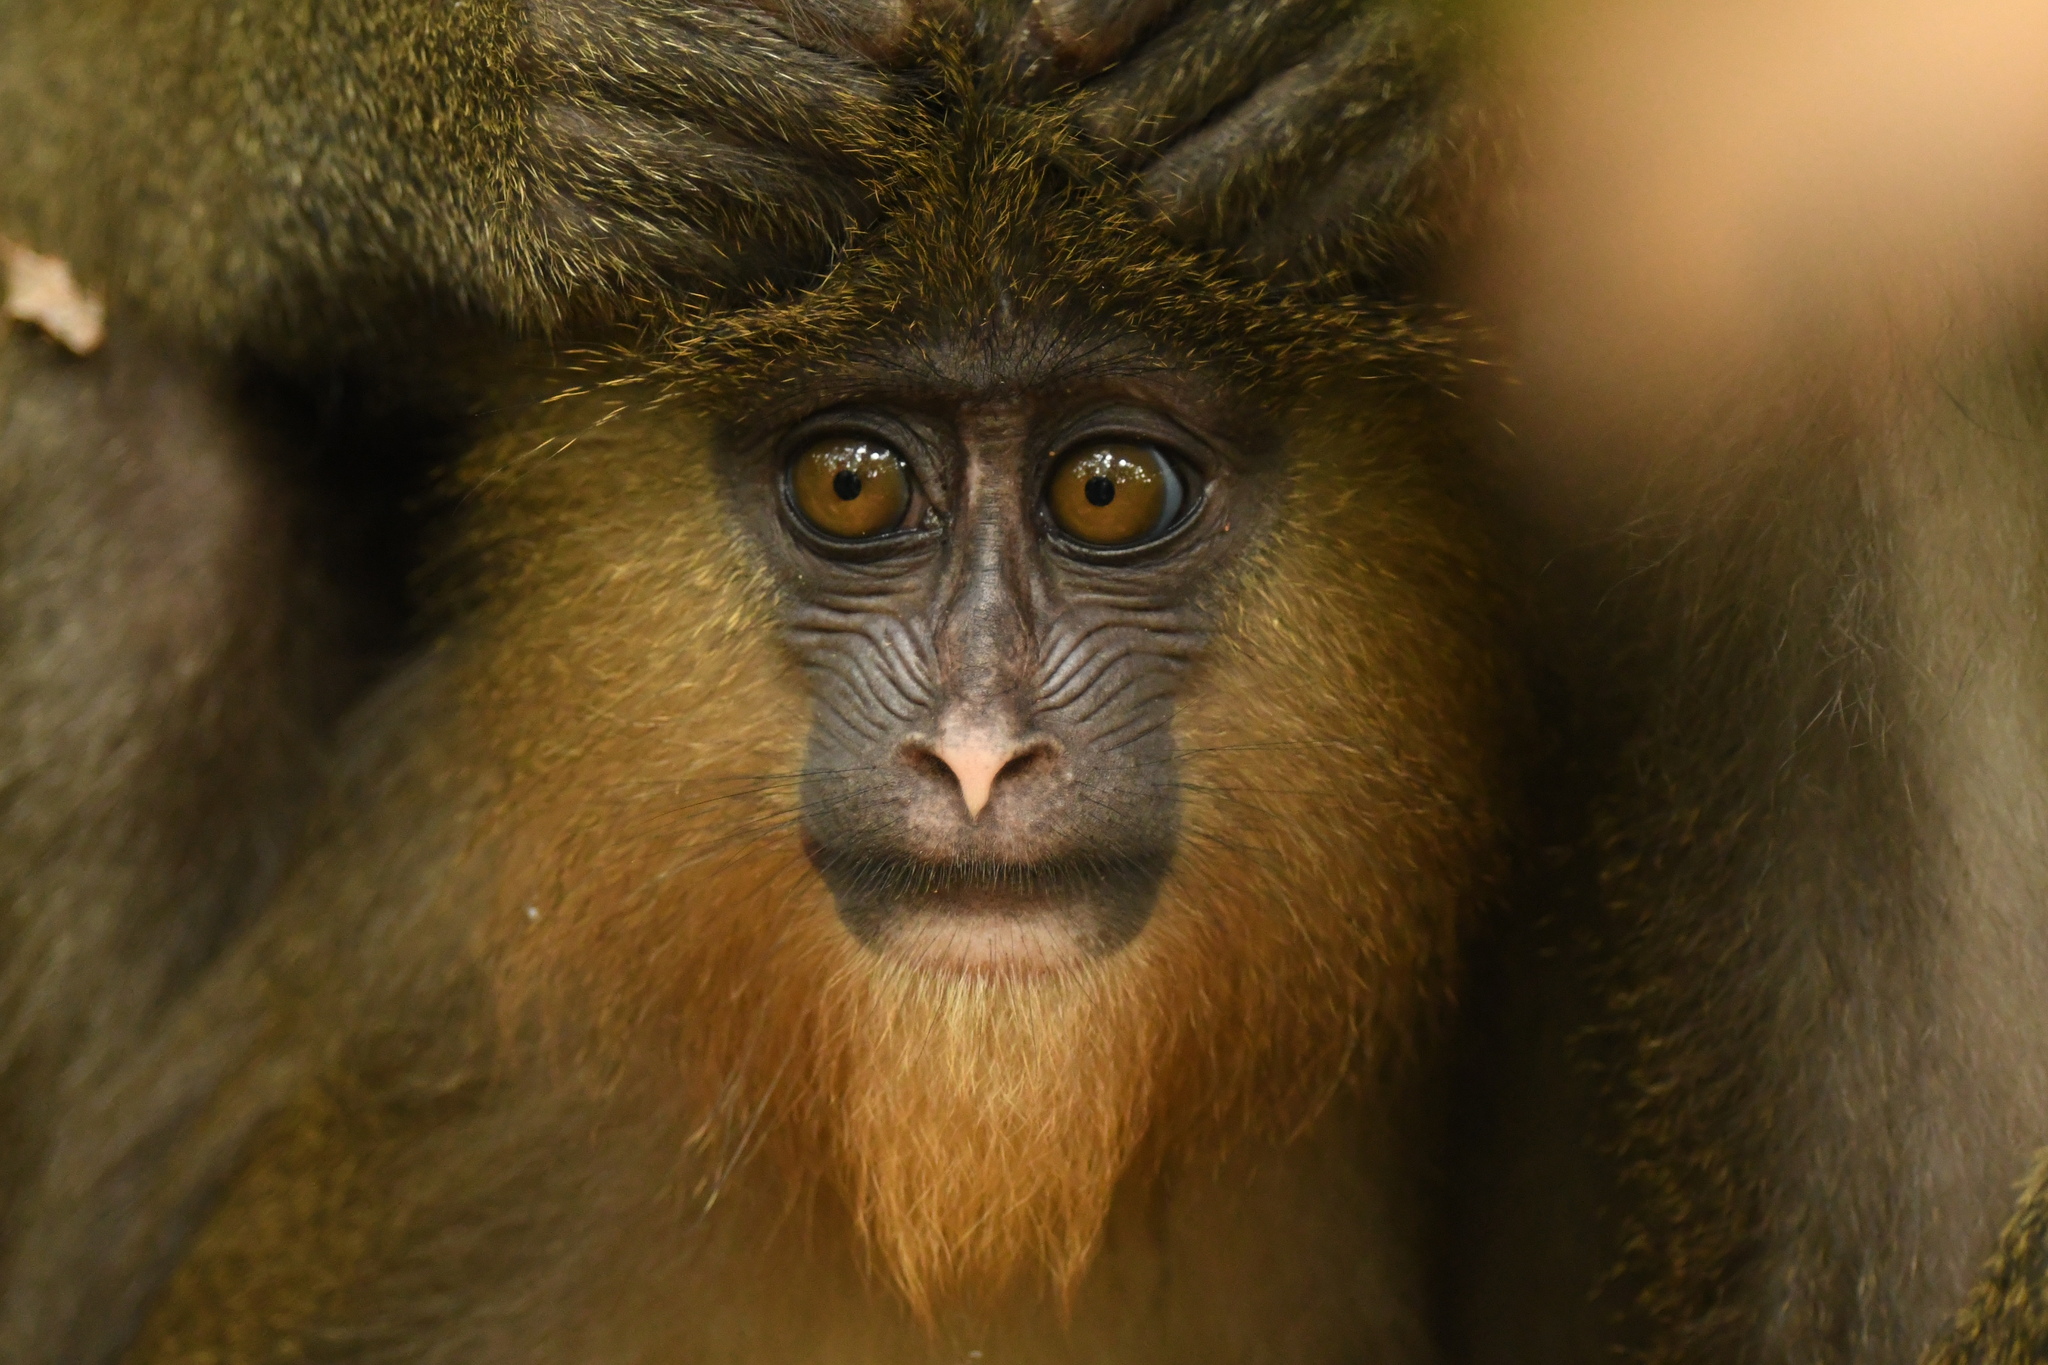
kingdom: Animalia
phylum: Chordata
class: Mammalia
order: Primates
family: Cercopithecidae
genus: Mandrillus
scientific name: Mandrillus sphinx
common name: Mandrill
